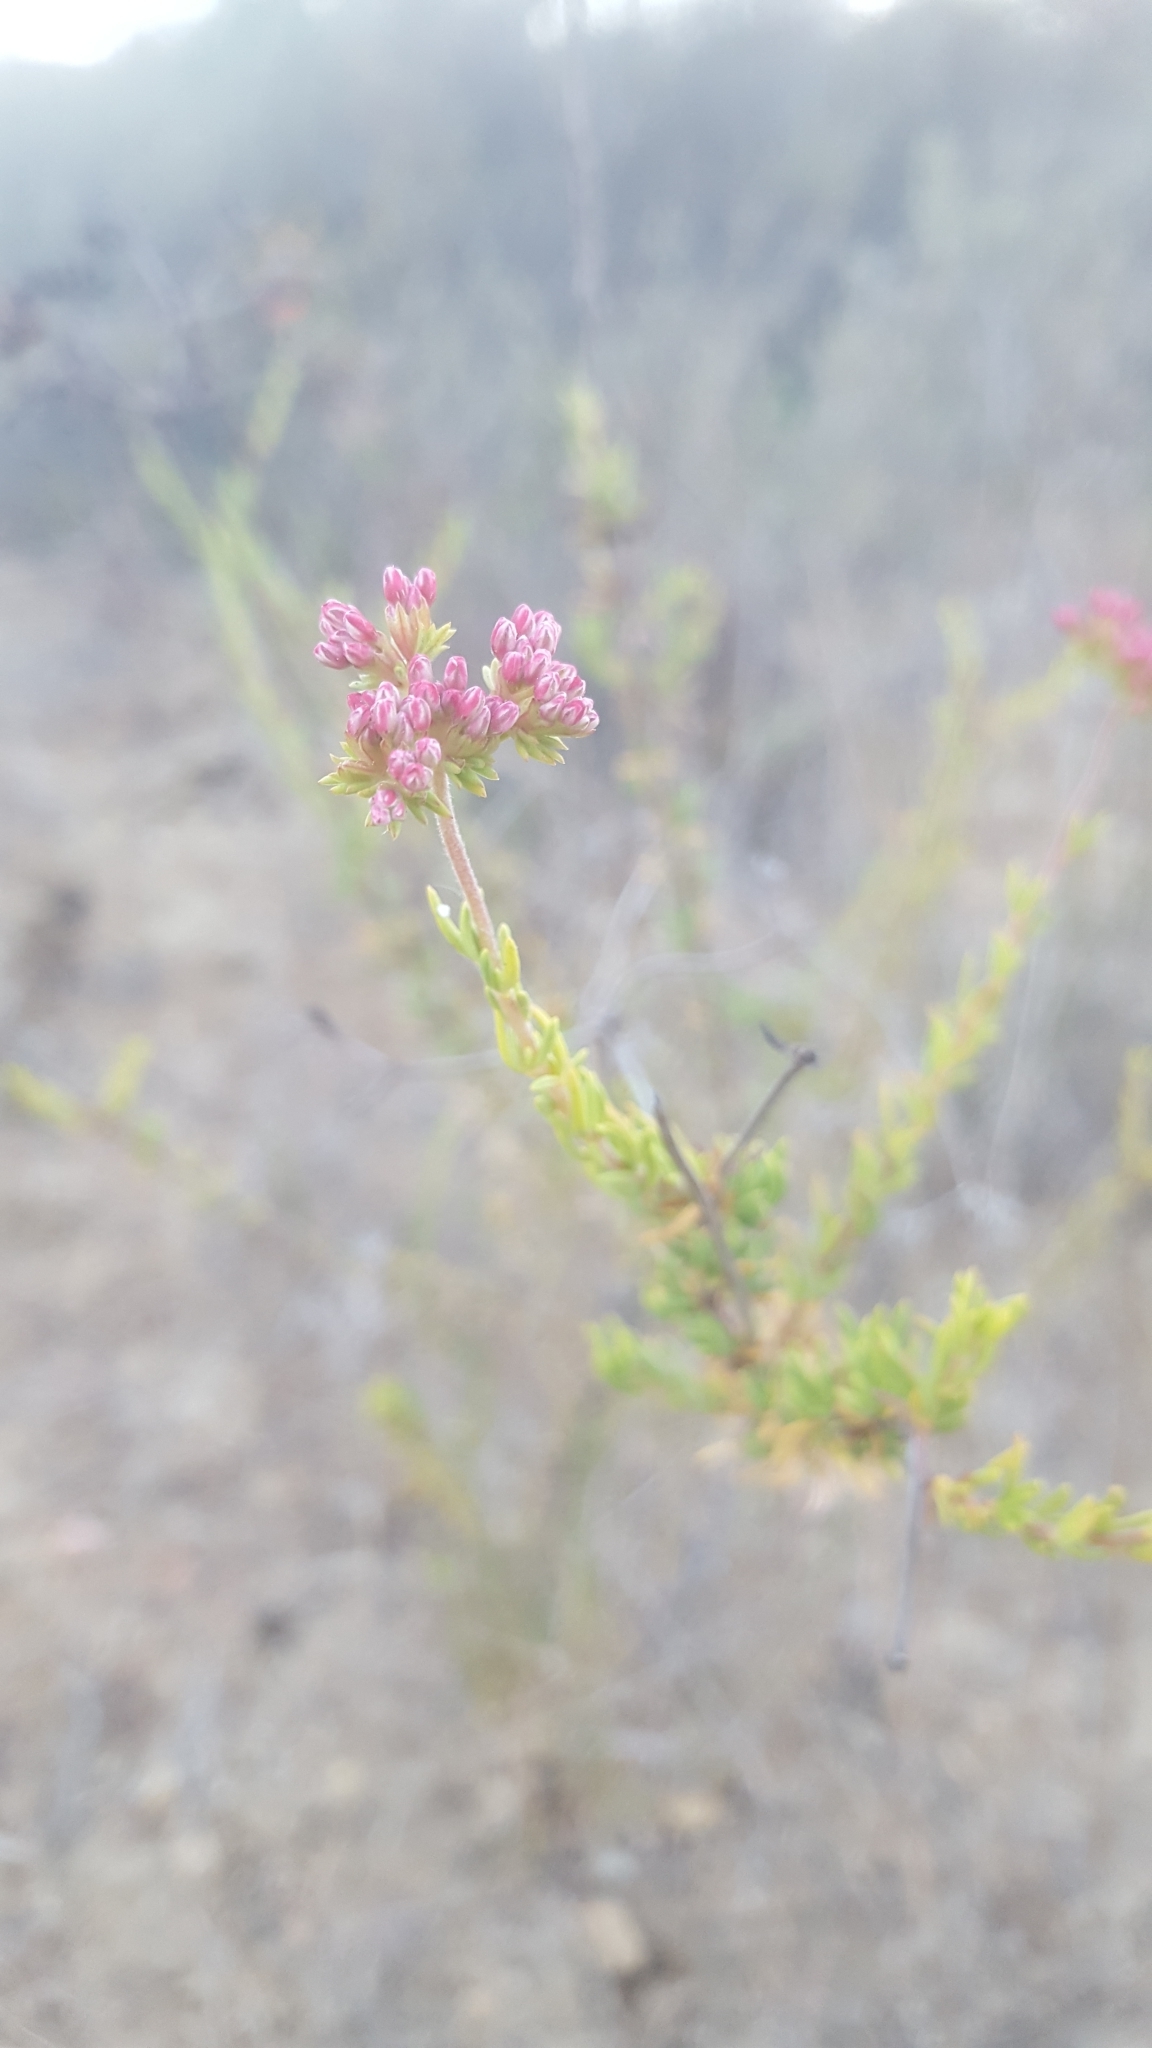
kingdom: Plantae
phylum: Tracheophyta
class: Magnoliopsida
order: Caryophyllales
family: Polygonaceae
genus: Eriogonum
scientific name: Eriogonum fasciculatum
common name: California wild buckwheat
